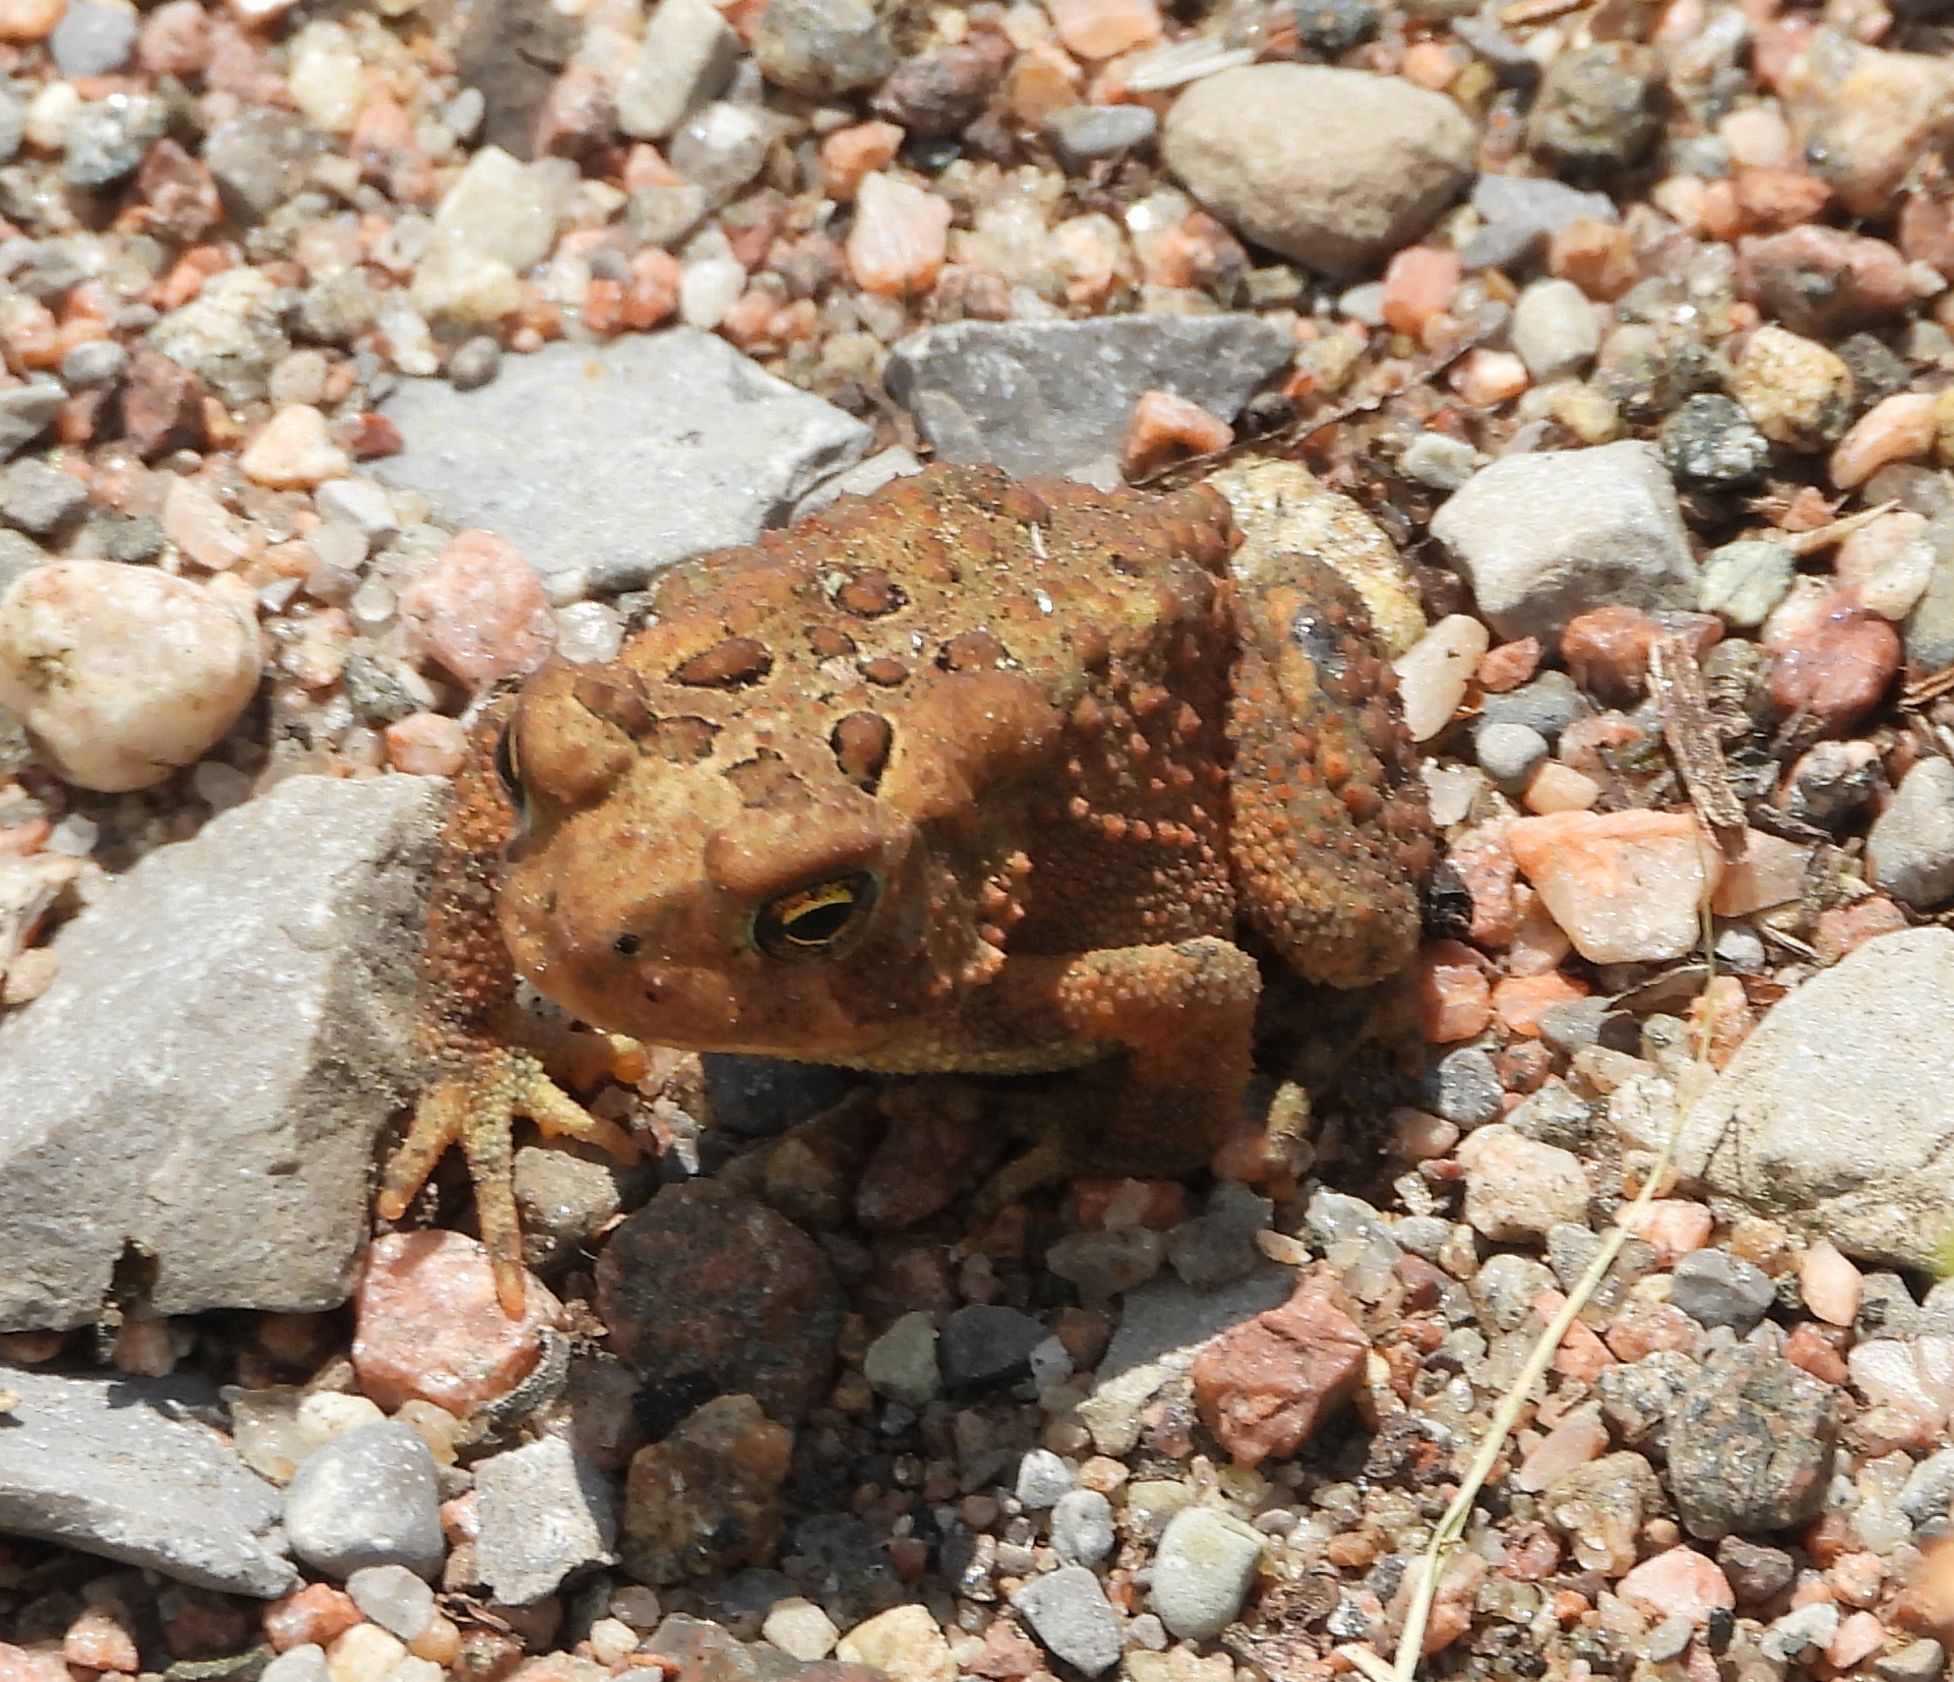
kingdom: Animalia
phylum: Chordata
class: Amphibia
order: Anura
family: Bufonidae
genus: Anaxyrus
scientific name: Anaxyrus americanus
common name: American toad
